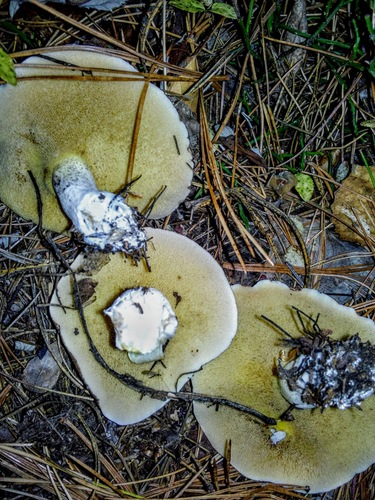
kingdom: Fungi
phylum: Basidiomycota
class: Agaricomycetes
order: Boletales
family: Suillaceae
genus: Suillus
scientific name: Suillus placidus
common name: Slippery white bolete
